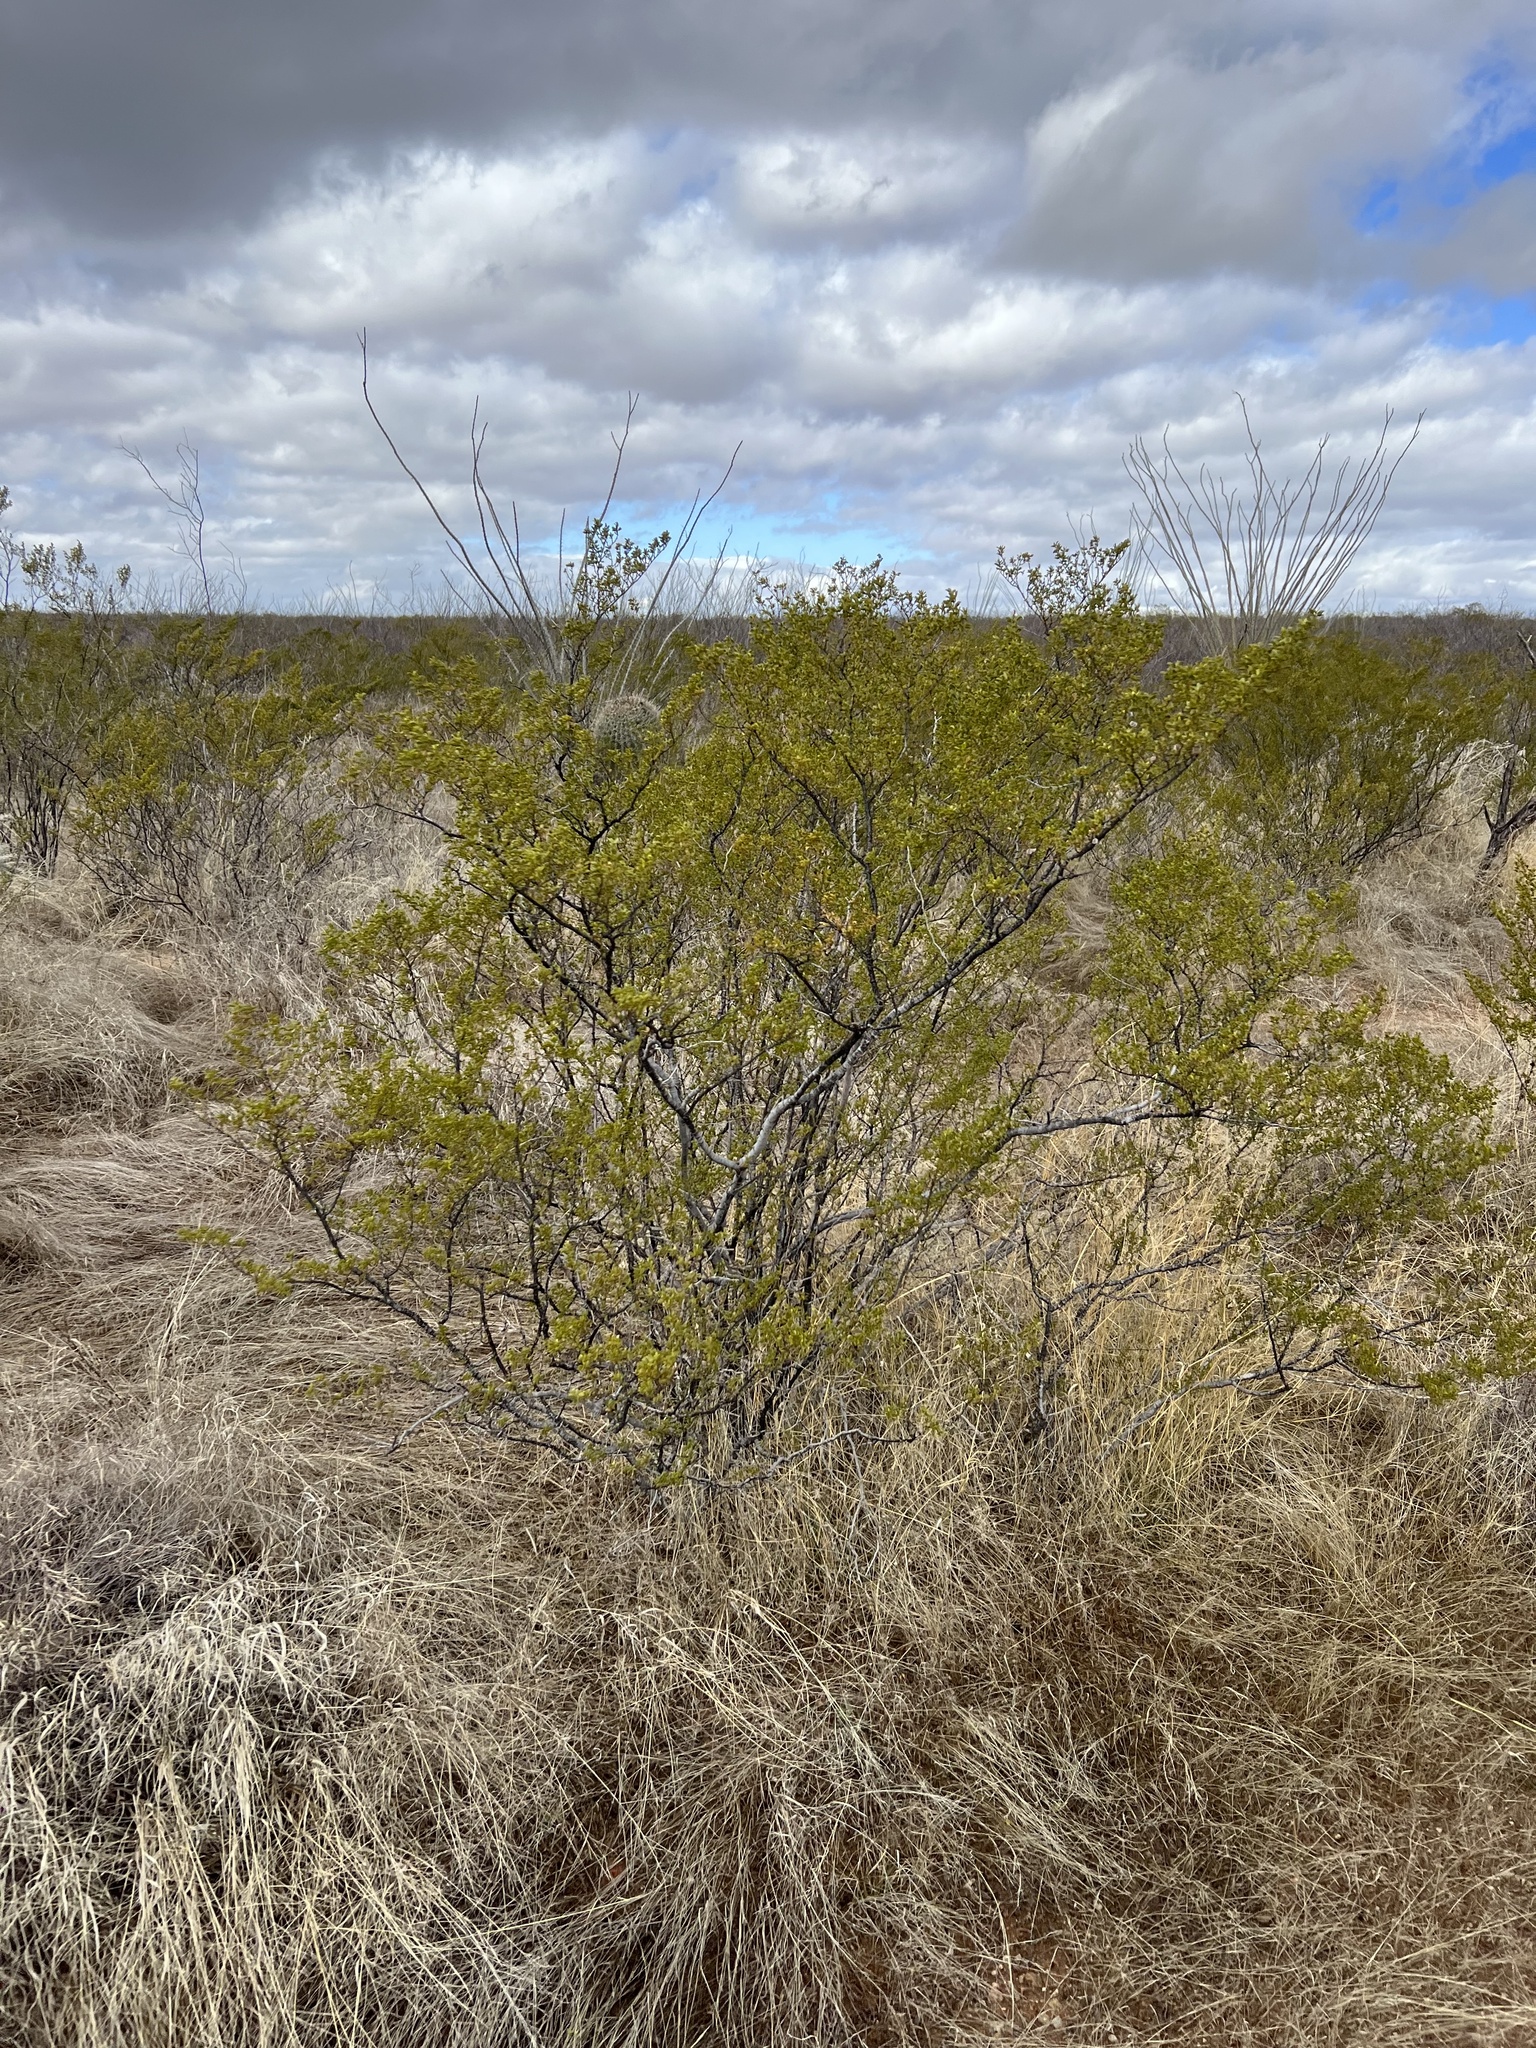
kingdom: Plantae
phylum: Tracheophyta
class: Magnoliopsida
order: Zygophyllales
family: Zygophyllaceae
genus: Larrea
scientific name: Larrea tridentata
